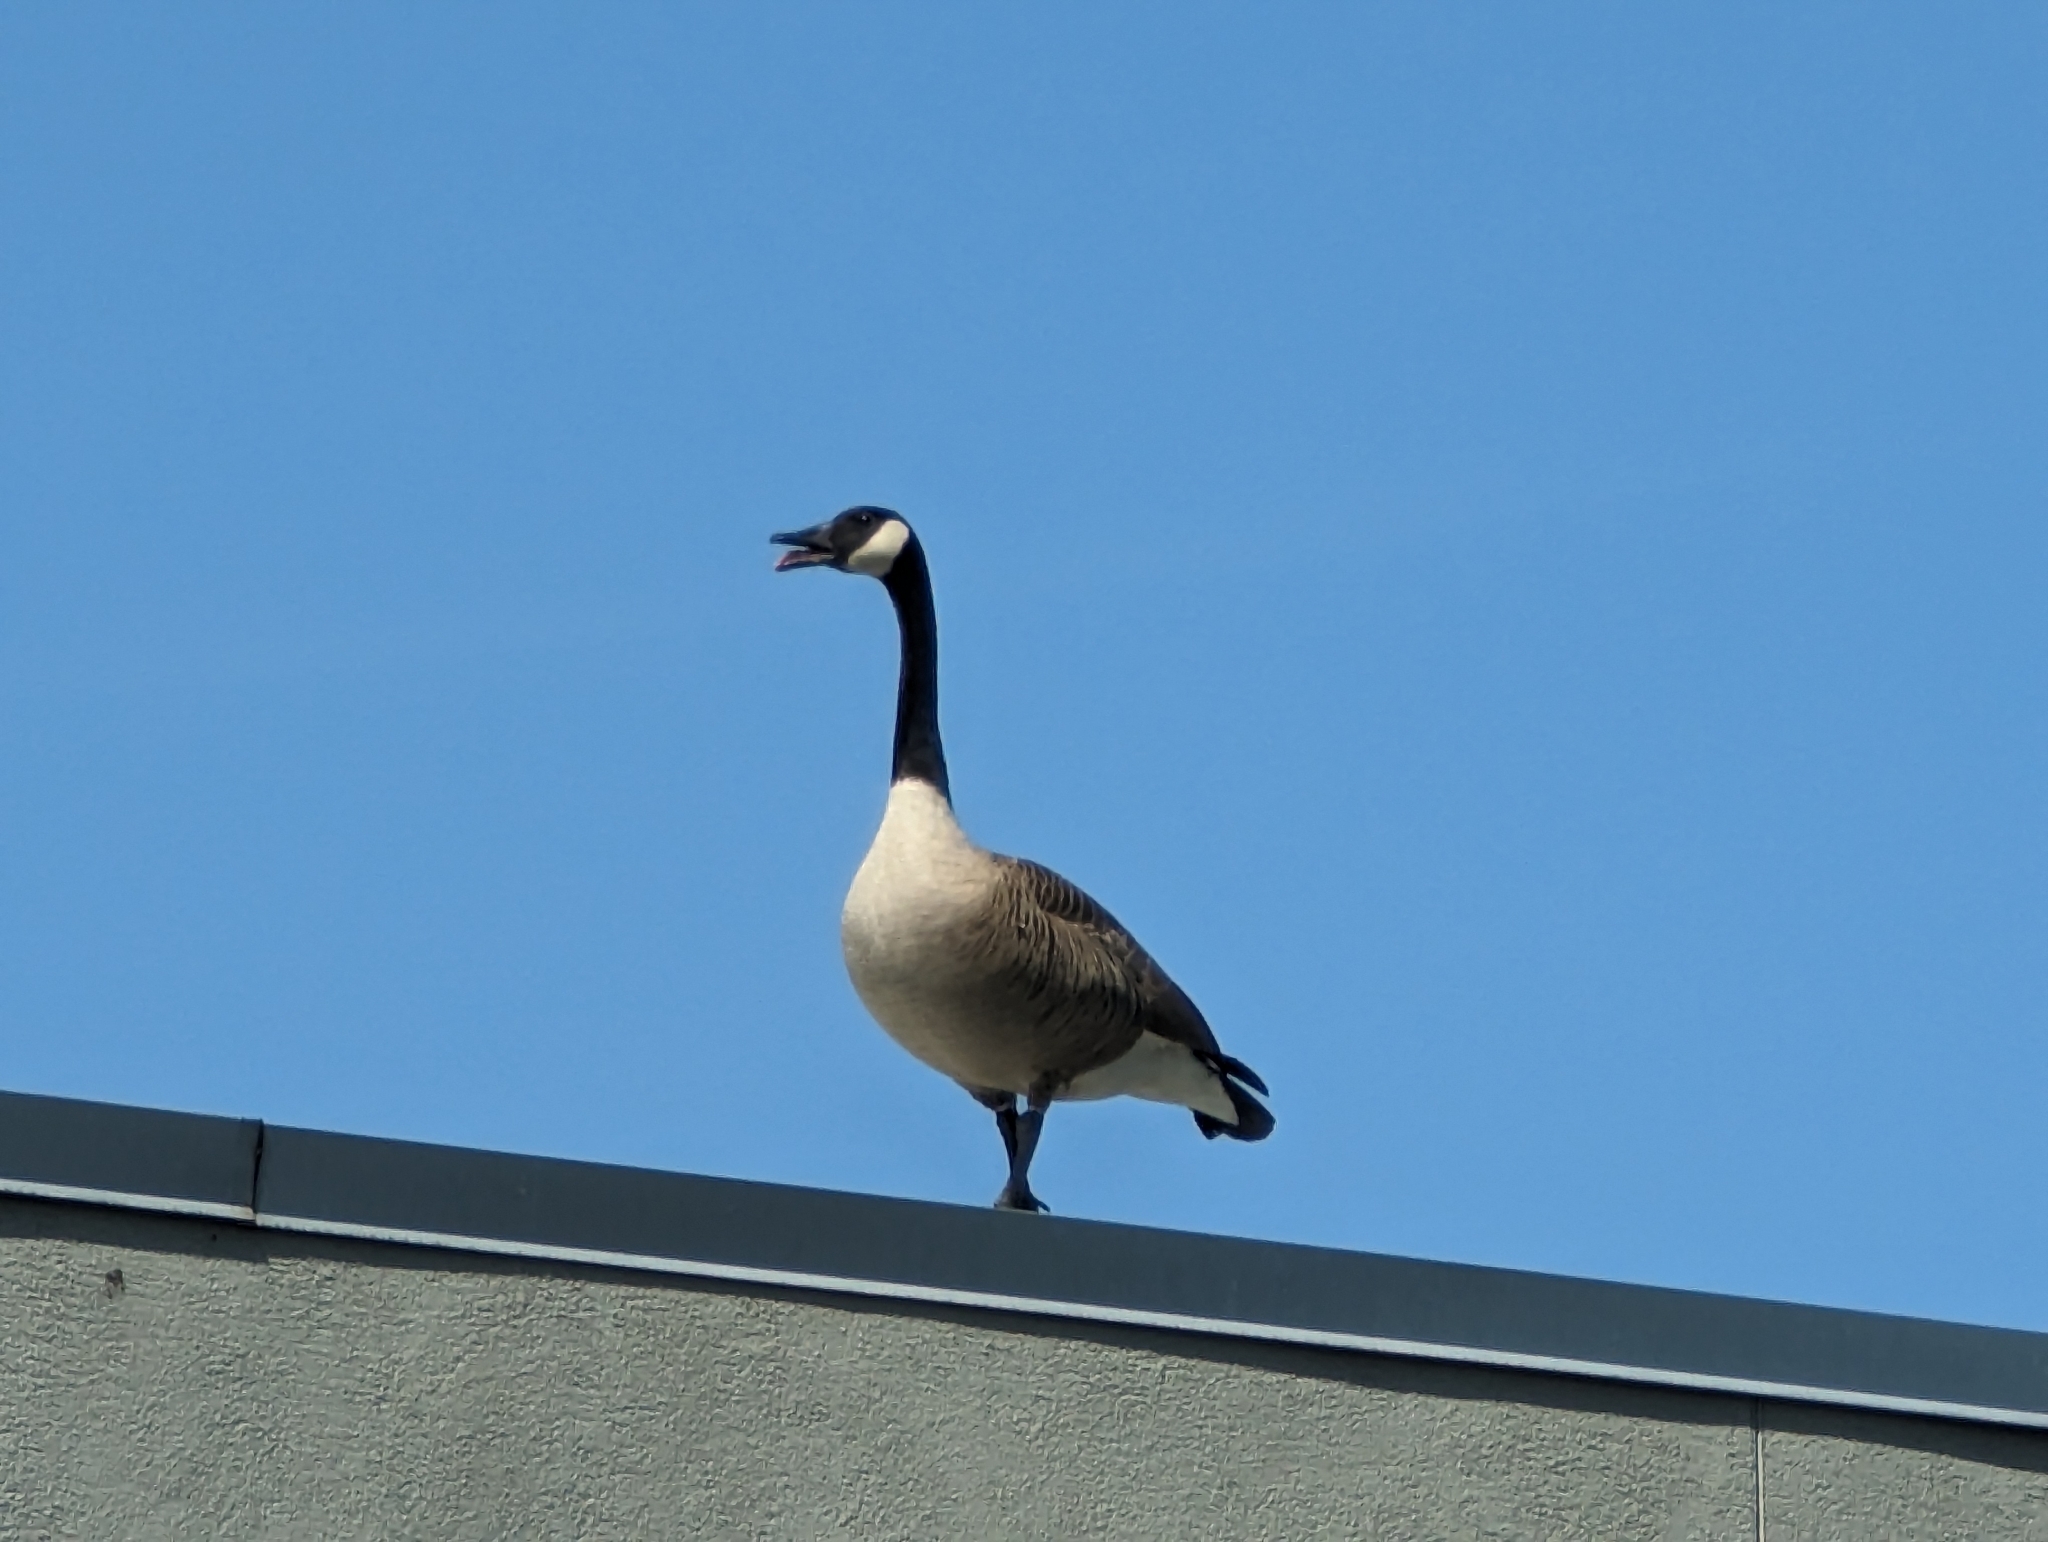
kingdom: Animalia
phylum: Chordata
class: Aves
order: Anseriformes
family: Anatidae
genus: Branta
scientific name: Branta canadensis
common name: Canada goose
